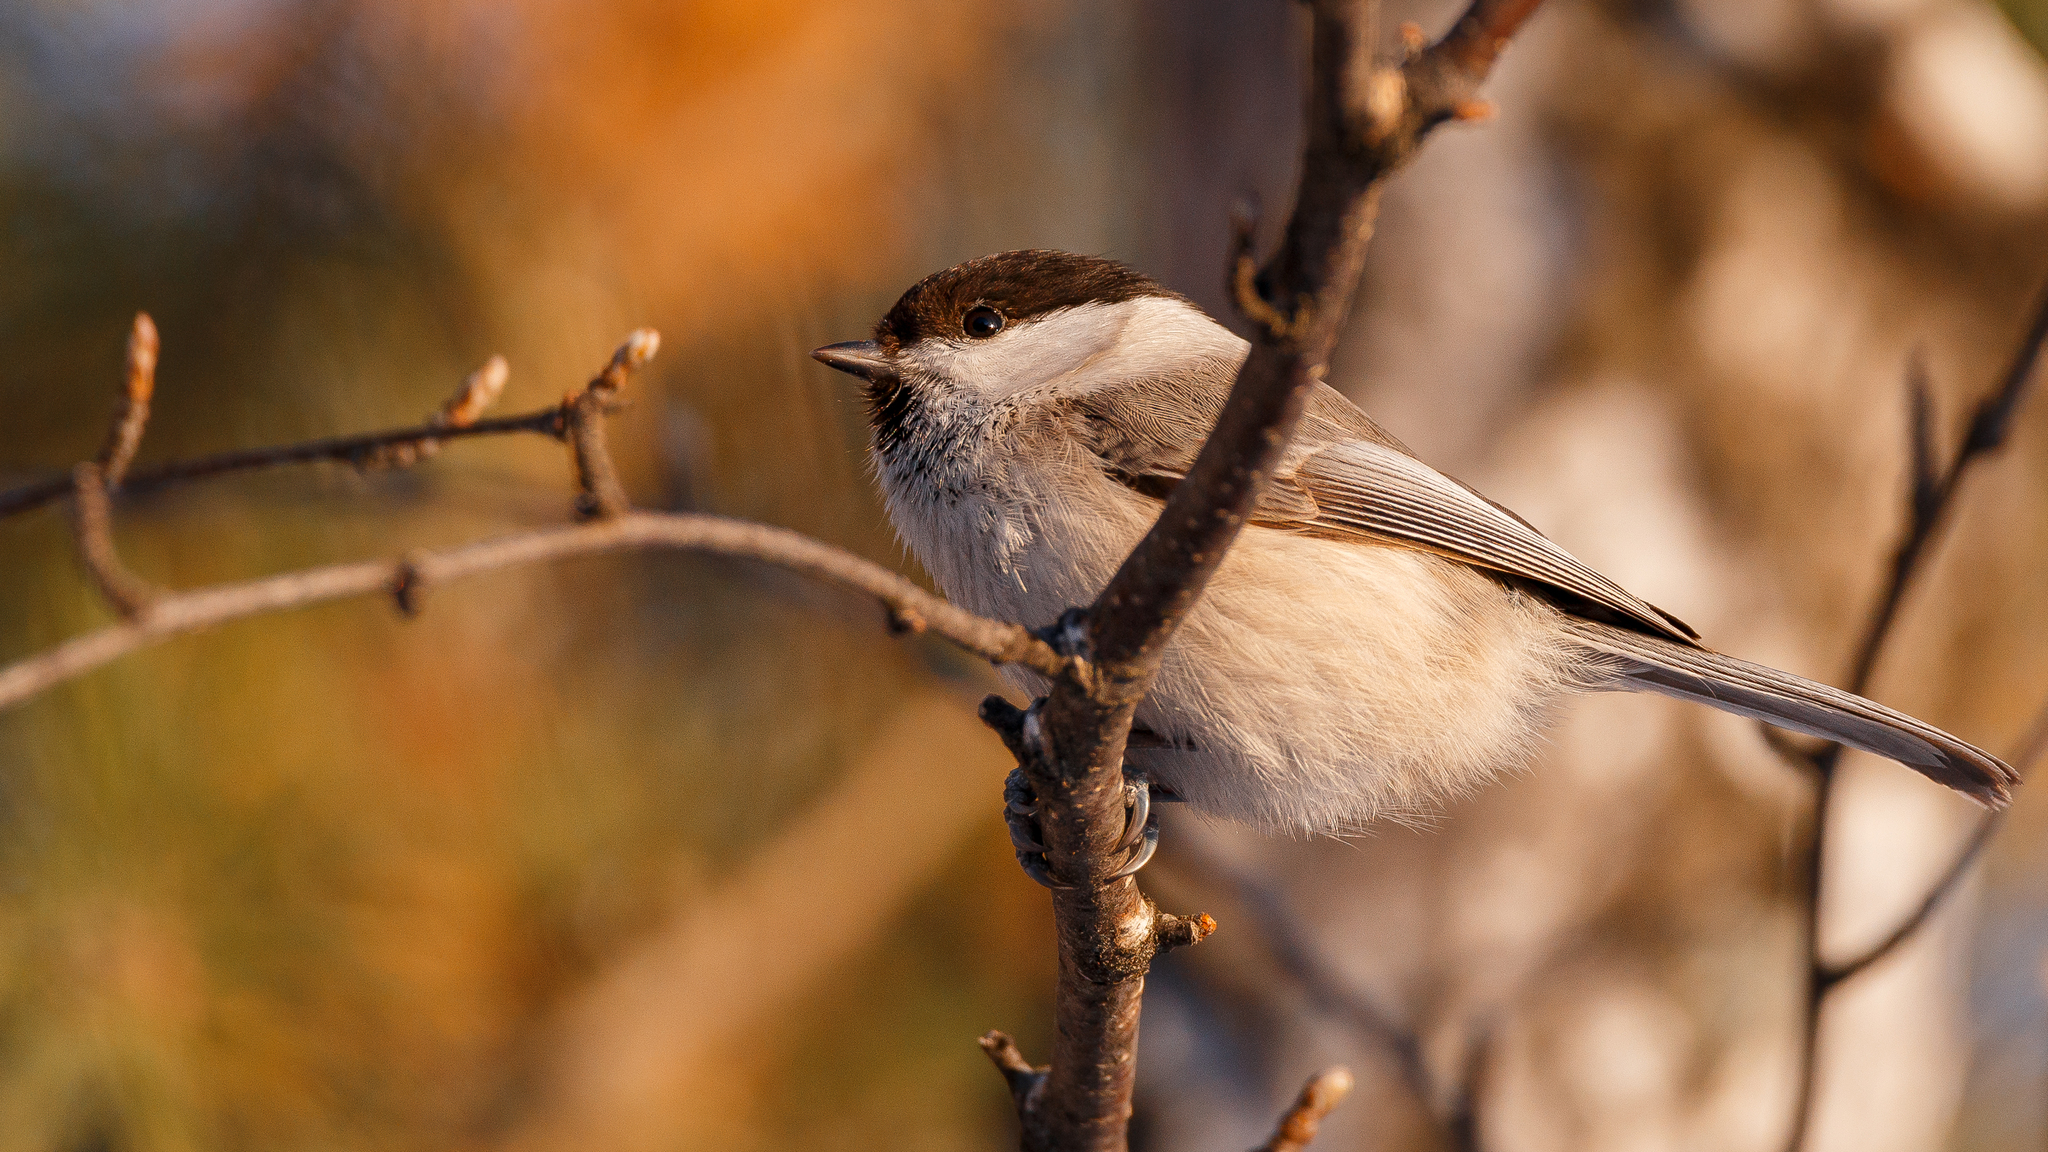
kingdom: Animalia
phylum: Chordata
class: Aves
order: Passeriformes
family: Paridae
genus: Poecile
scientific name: Poecile montanus
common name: Willow tit
